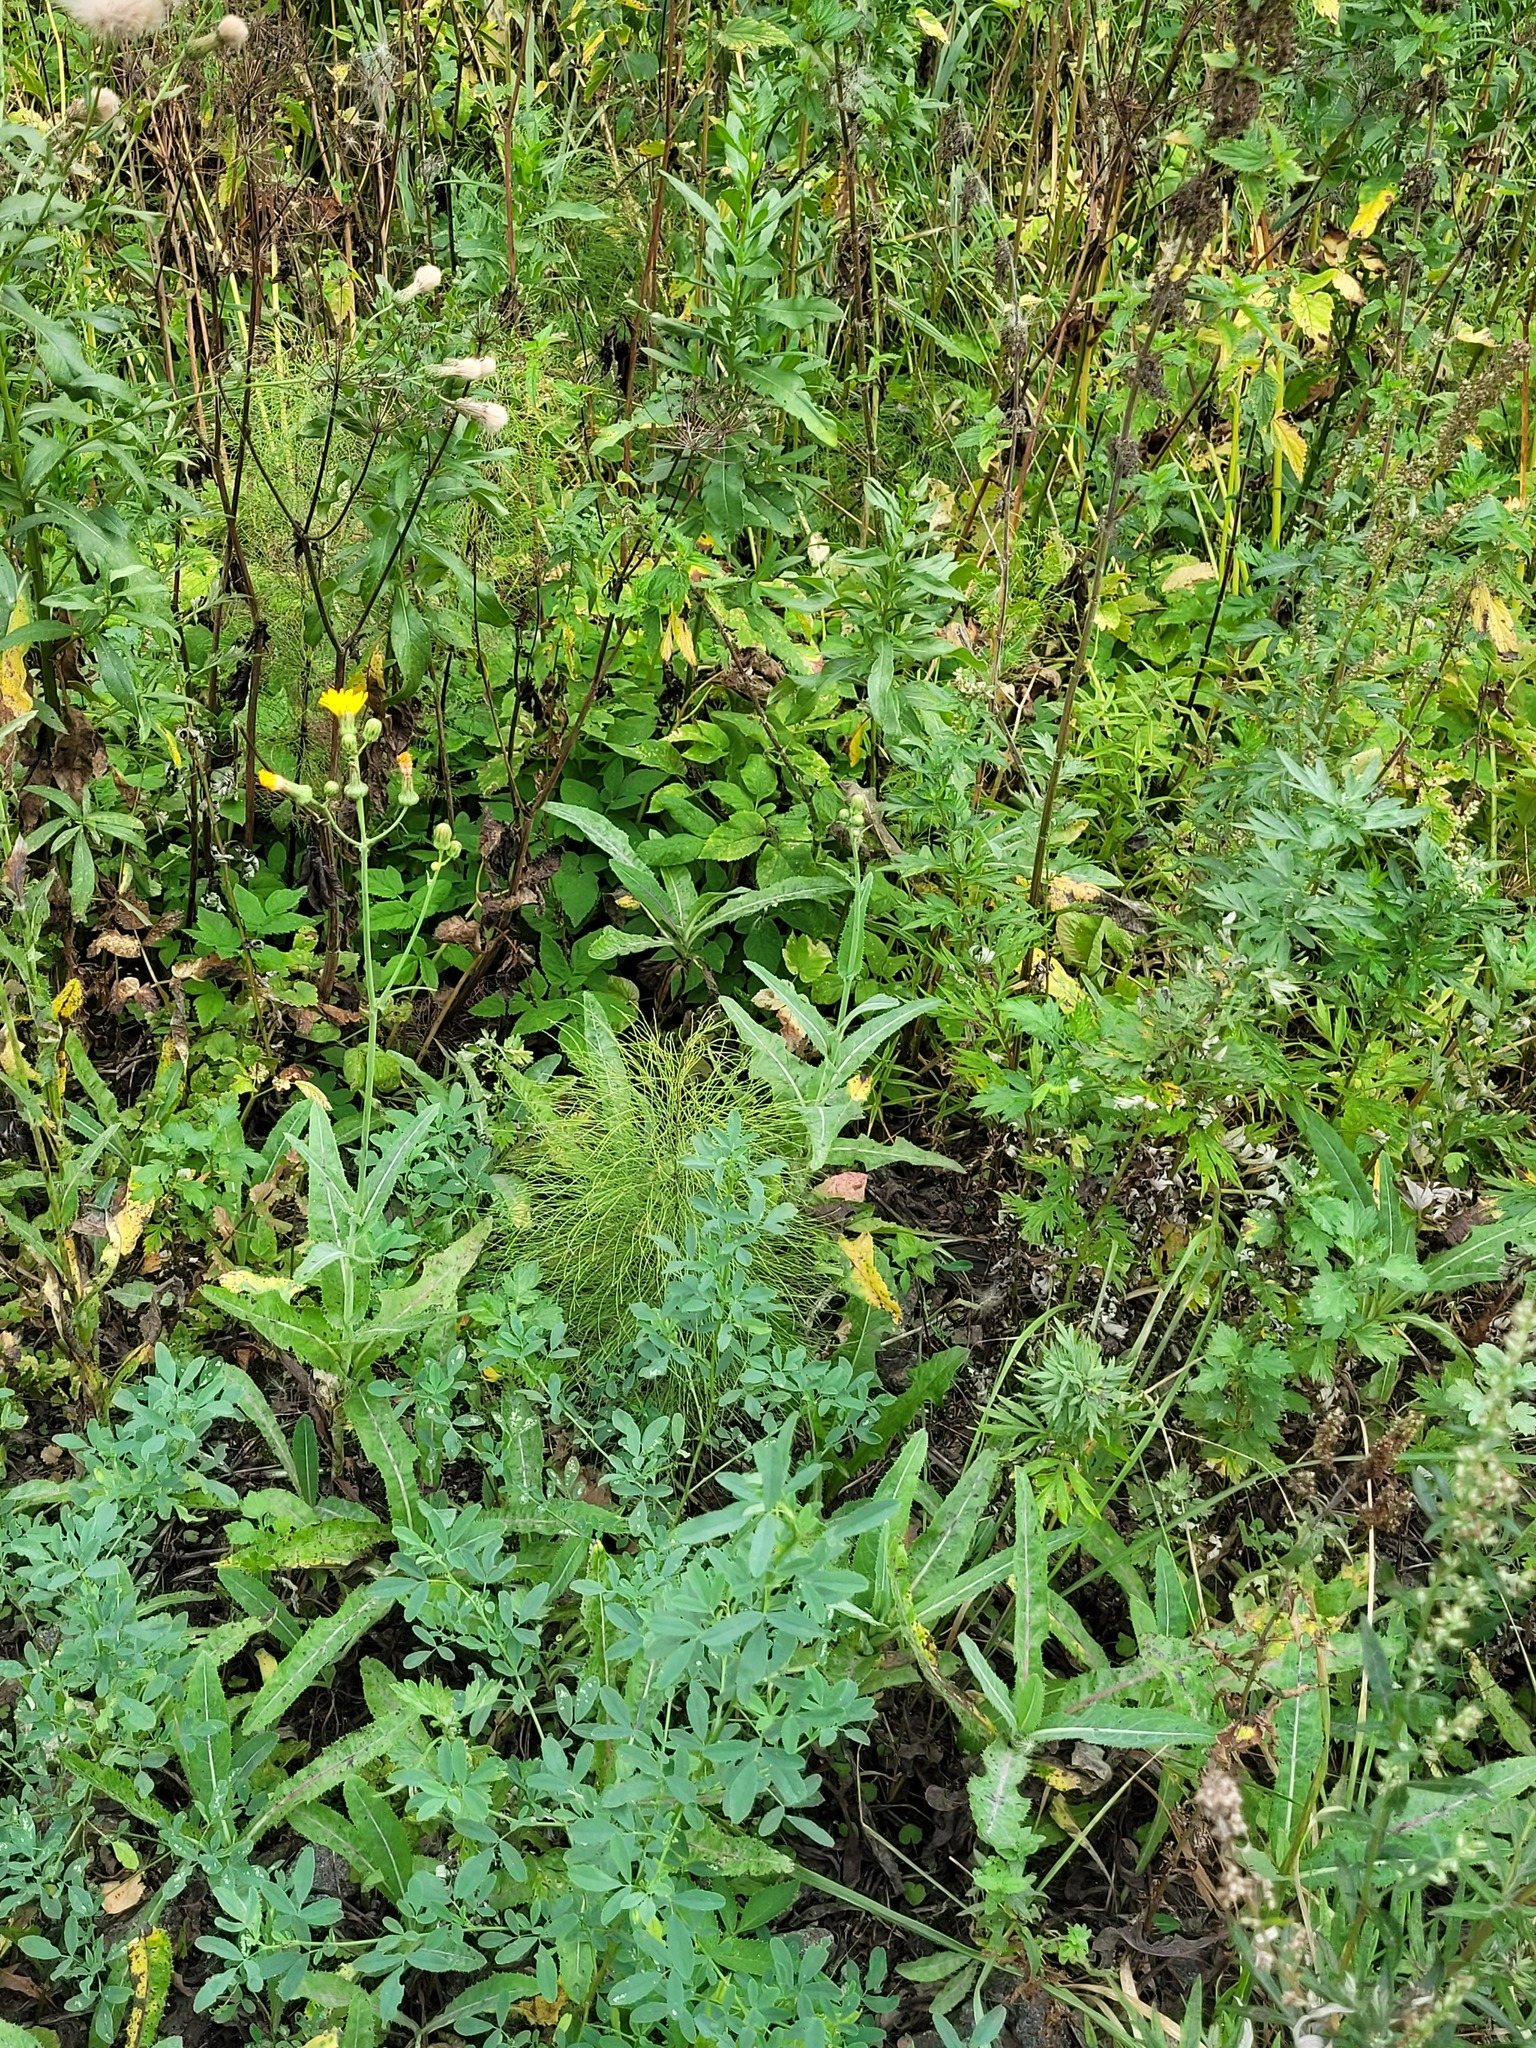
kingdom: Plantae
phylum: Tracheophyta
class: Polypodiopsida
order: Equisetales
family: Equisetaceae
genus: Equisetum
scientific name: Equisetum sylvaticum
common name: Wood horsetail
